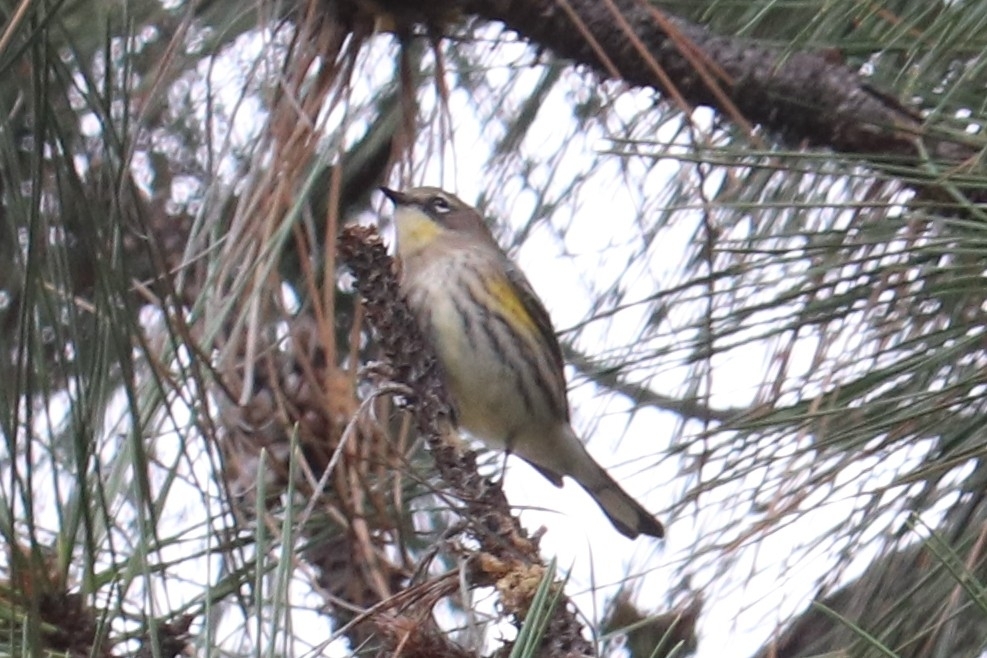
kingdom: Animalia
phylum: Chordata
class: Aves
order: Passeriformes
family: Parulidae
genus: Setophaga
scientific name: Setophaga coronata
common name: Myrtle warbler
